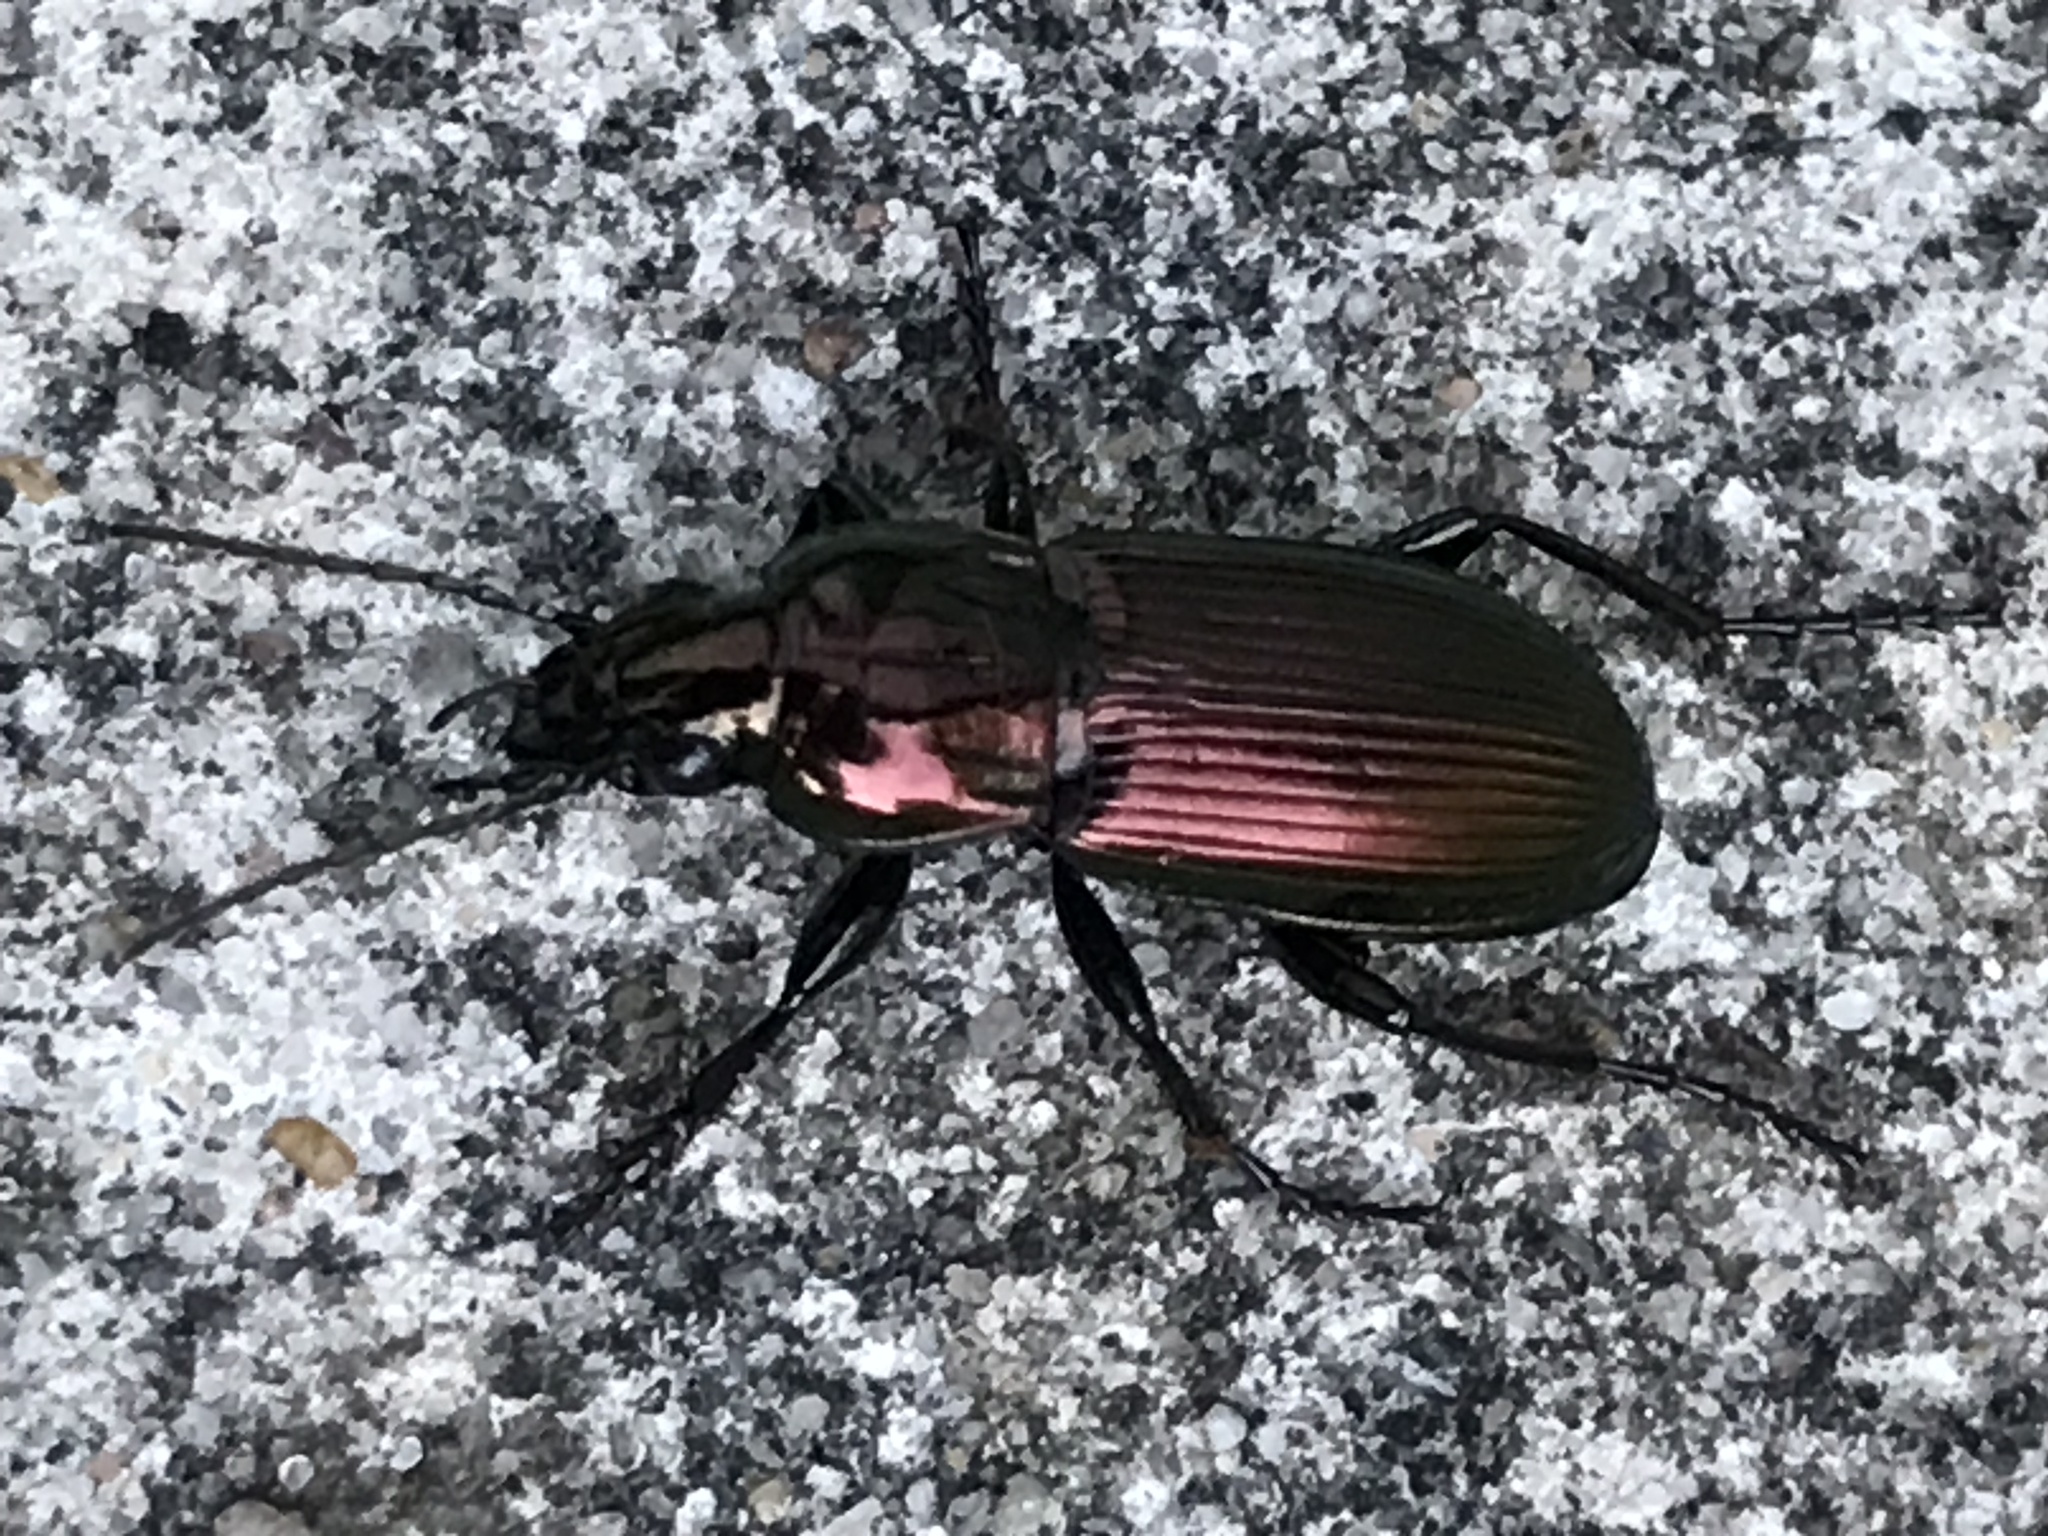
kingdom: Animalia
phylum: Arthropoda
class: Insecta
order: Coleoptera
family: Carabidae
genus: Poecilus
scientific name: Poecilus lepidus
